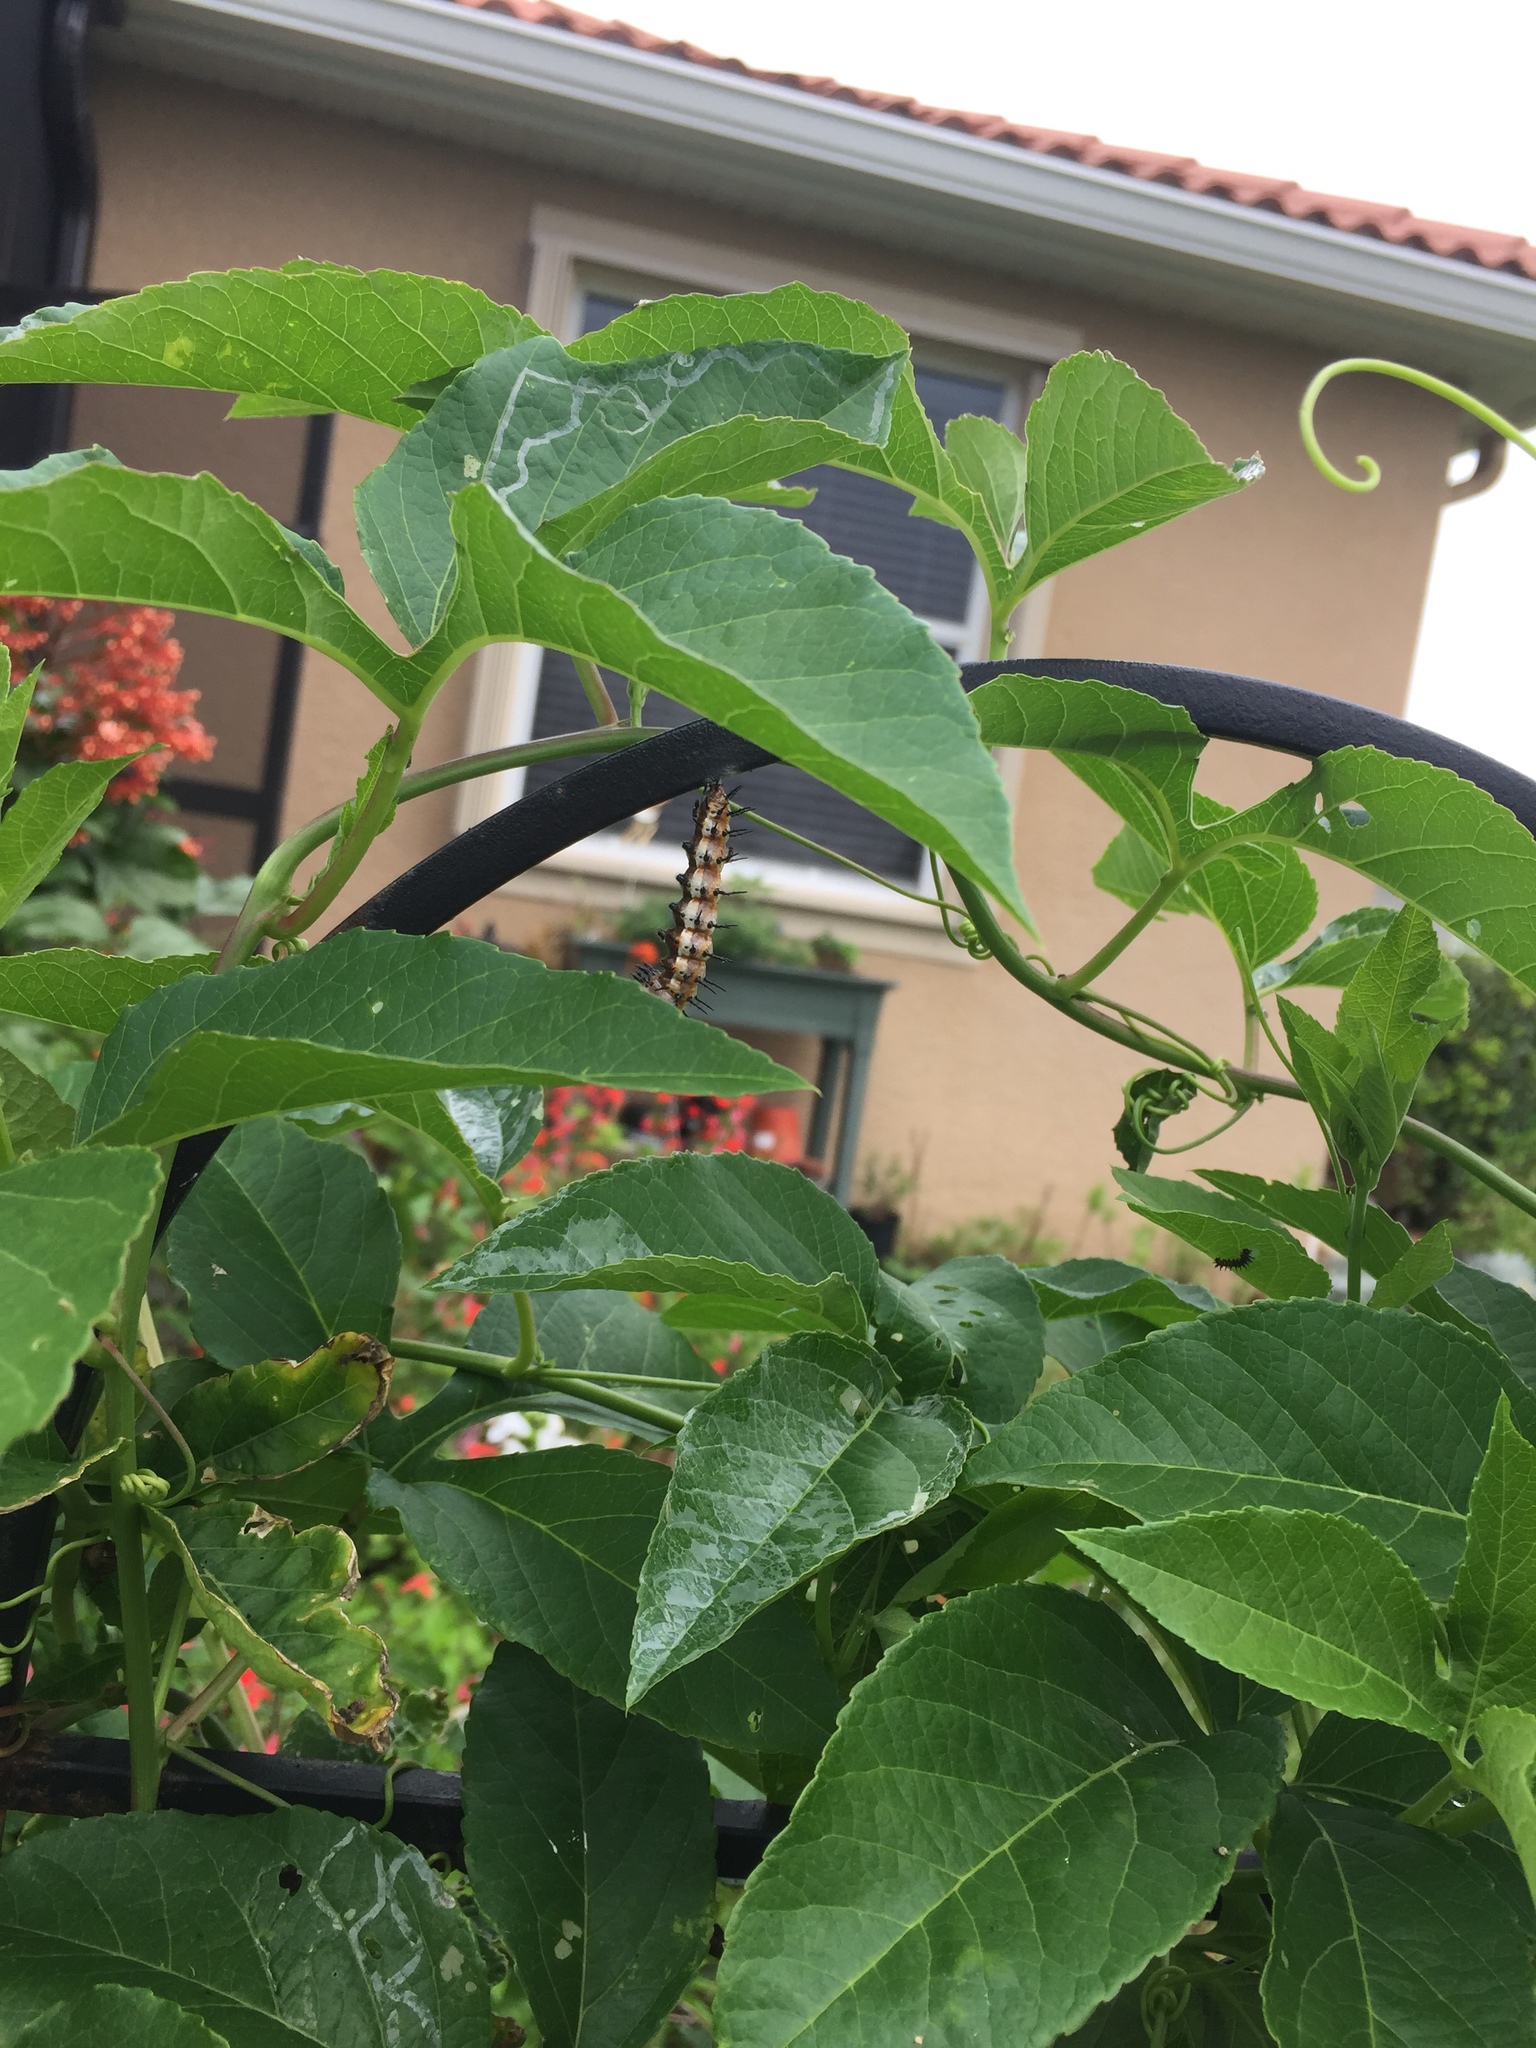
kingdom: Animalia
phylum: Arthropoda
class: Insecta
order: Lepidoptera
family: Nymphalidae
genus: Dione
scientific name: Dione vanillae
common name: Gulf fritillary
